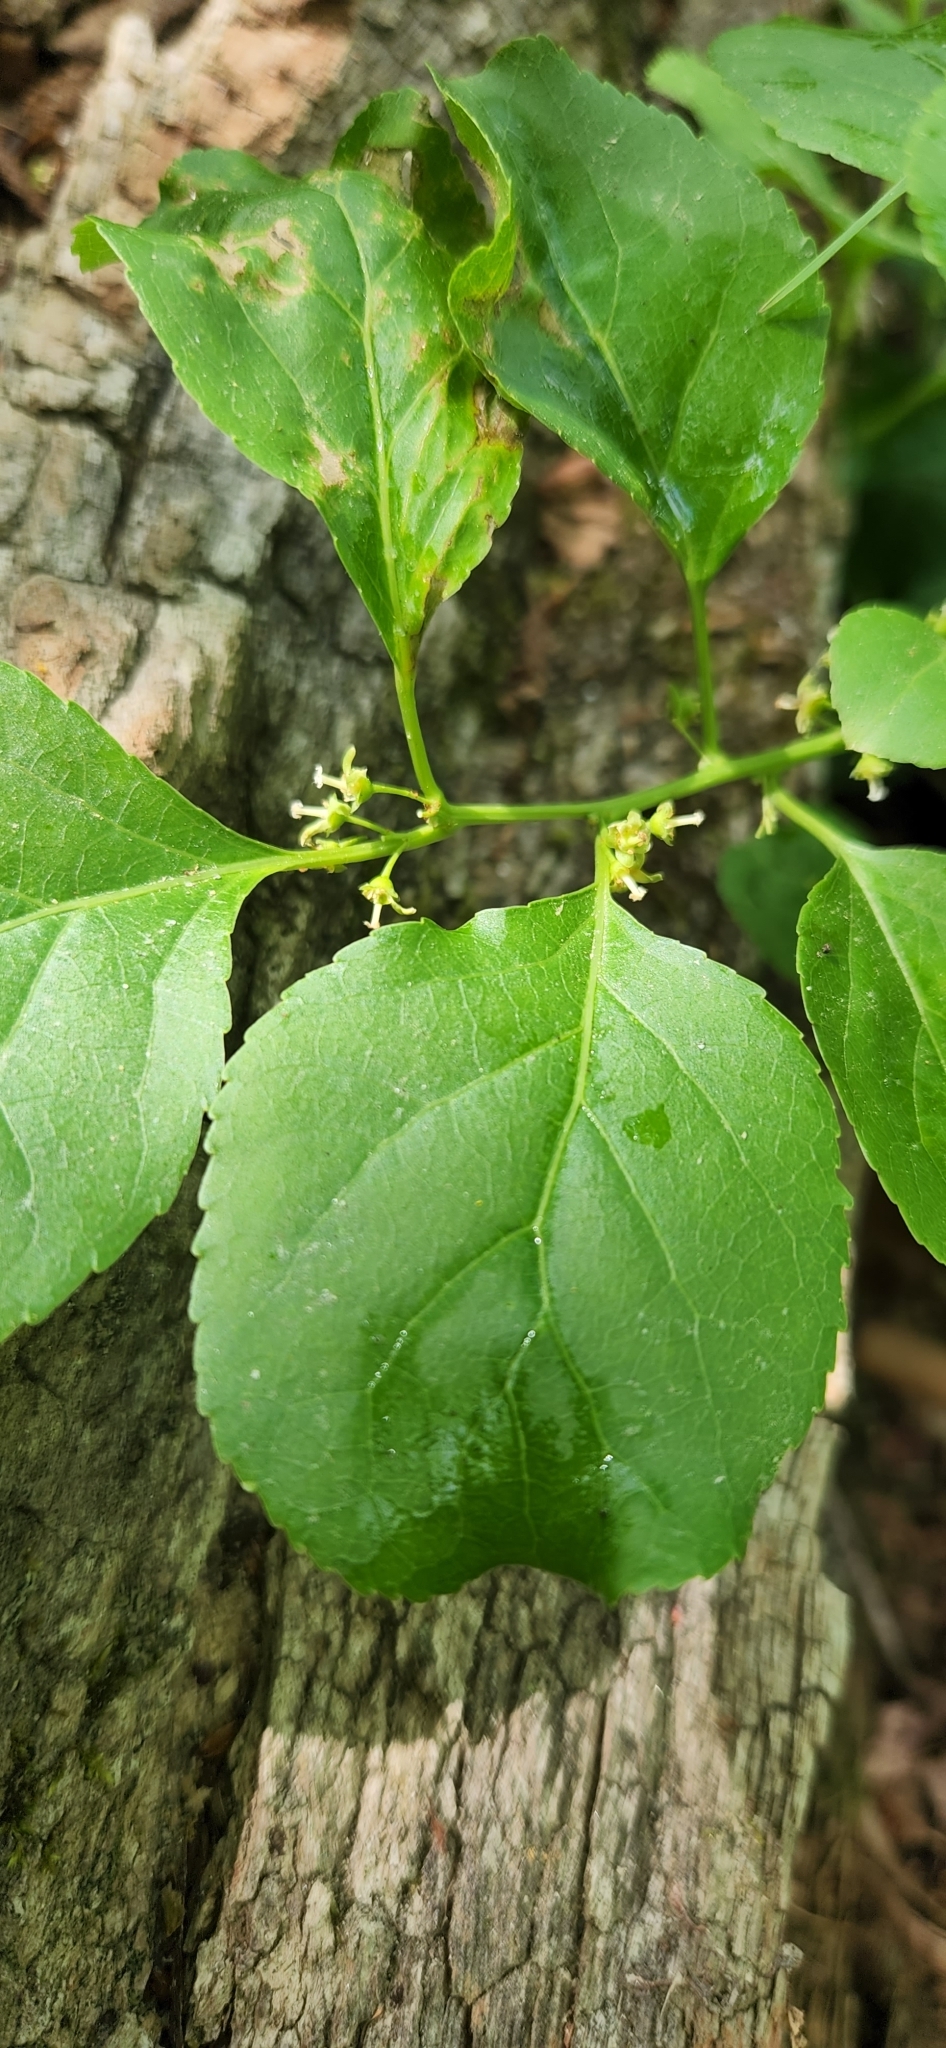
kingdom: Plantae
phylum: Tracheophyta
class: Magnoliopsida
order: Celastrales
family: Celastraceae
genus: Celastrus
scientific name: Celastrus orbiculatus
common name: Oriental bittersweet
